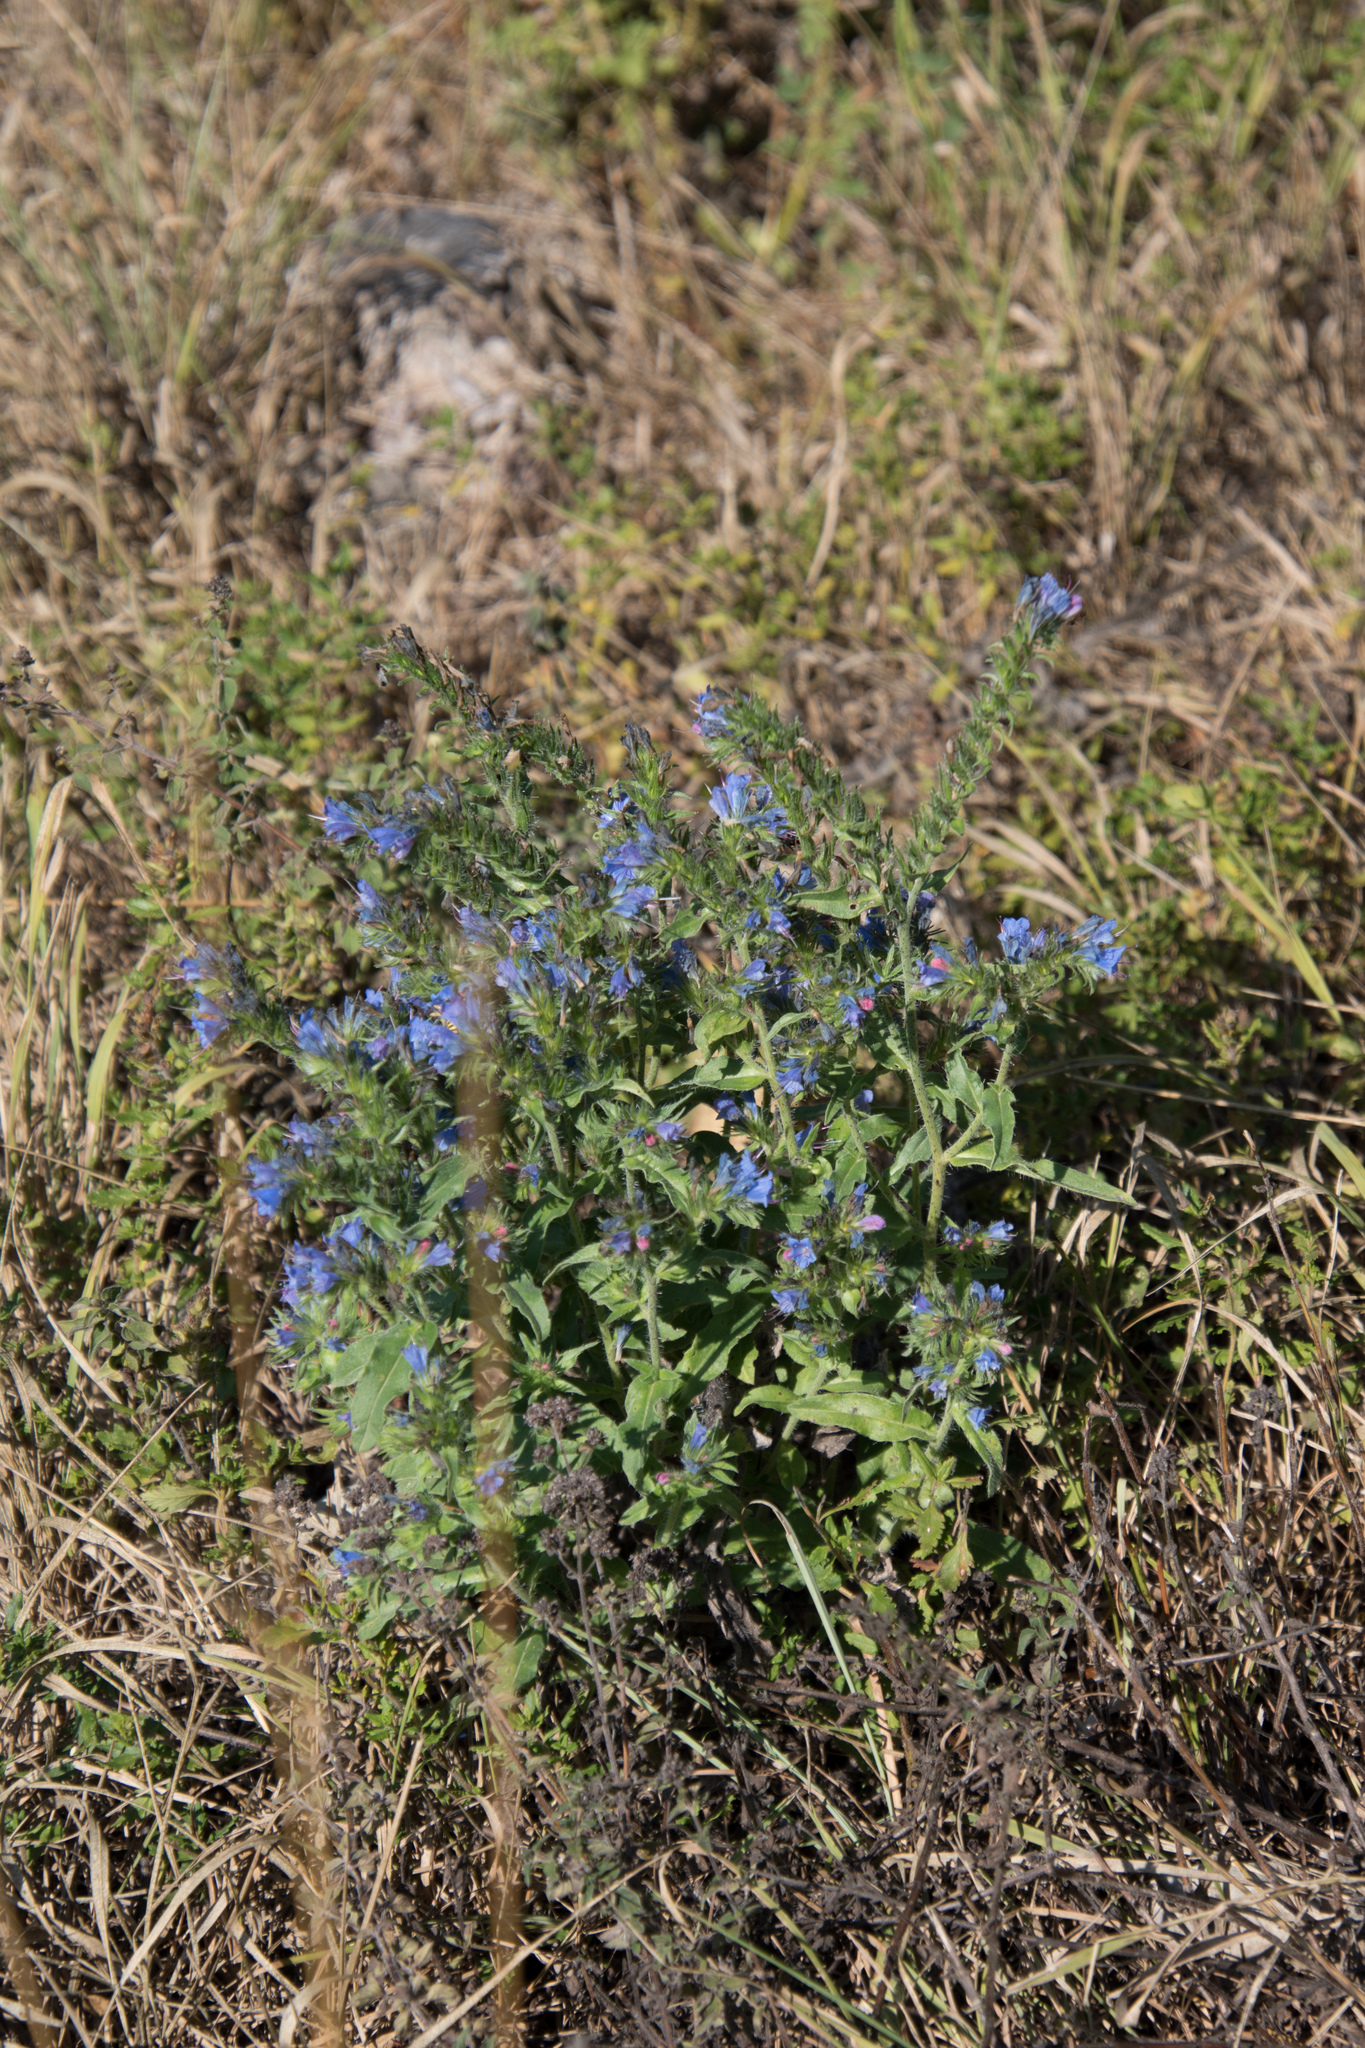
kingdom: Plantae
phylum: Tracheophyta
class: Magnoliopsida
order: Boraginales
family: Boraginaceae
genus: Echium
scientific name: Echium vulgare
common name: Common viper's bugloss
